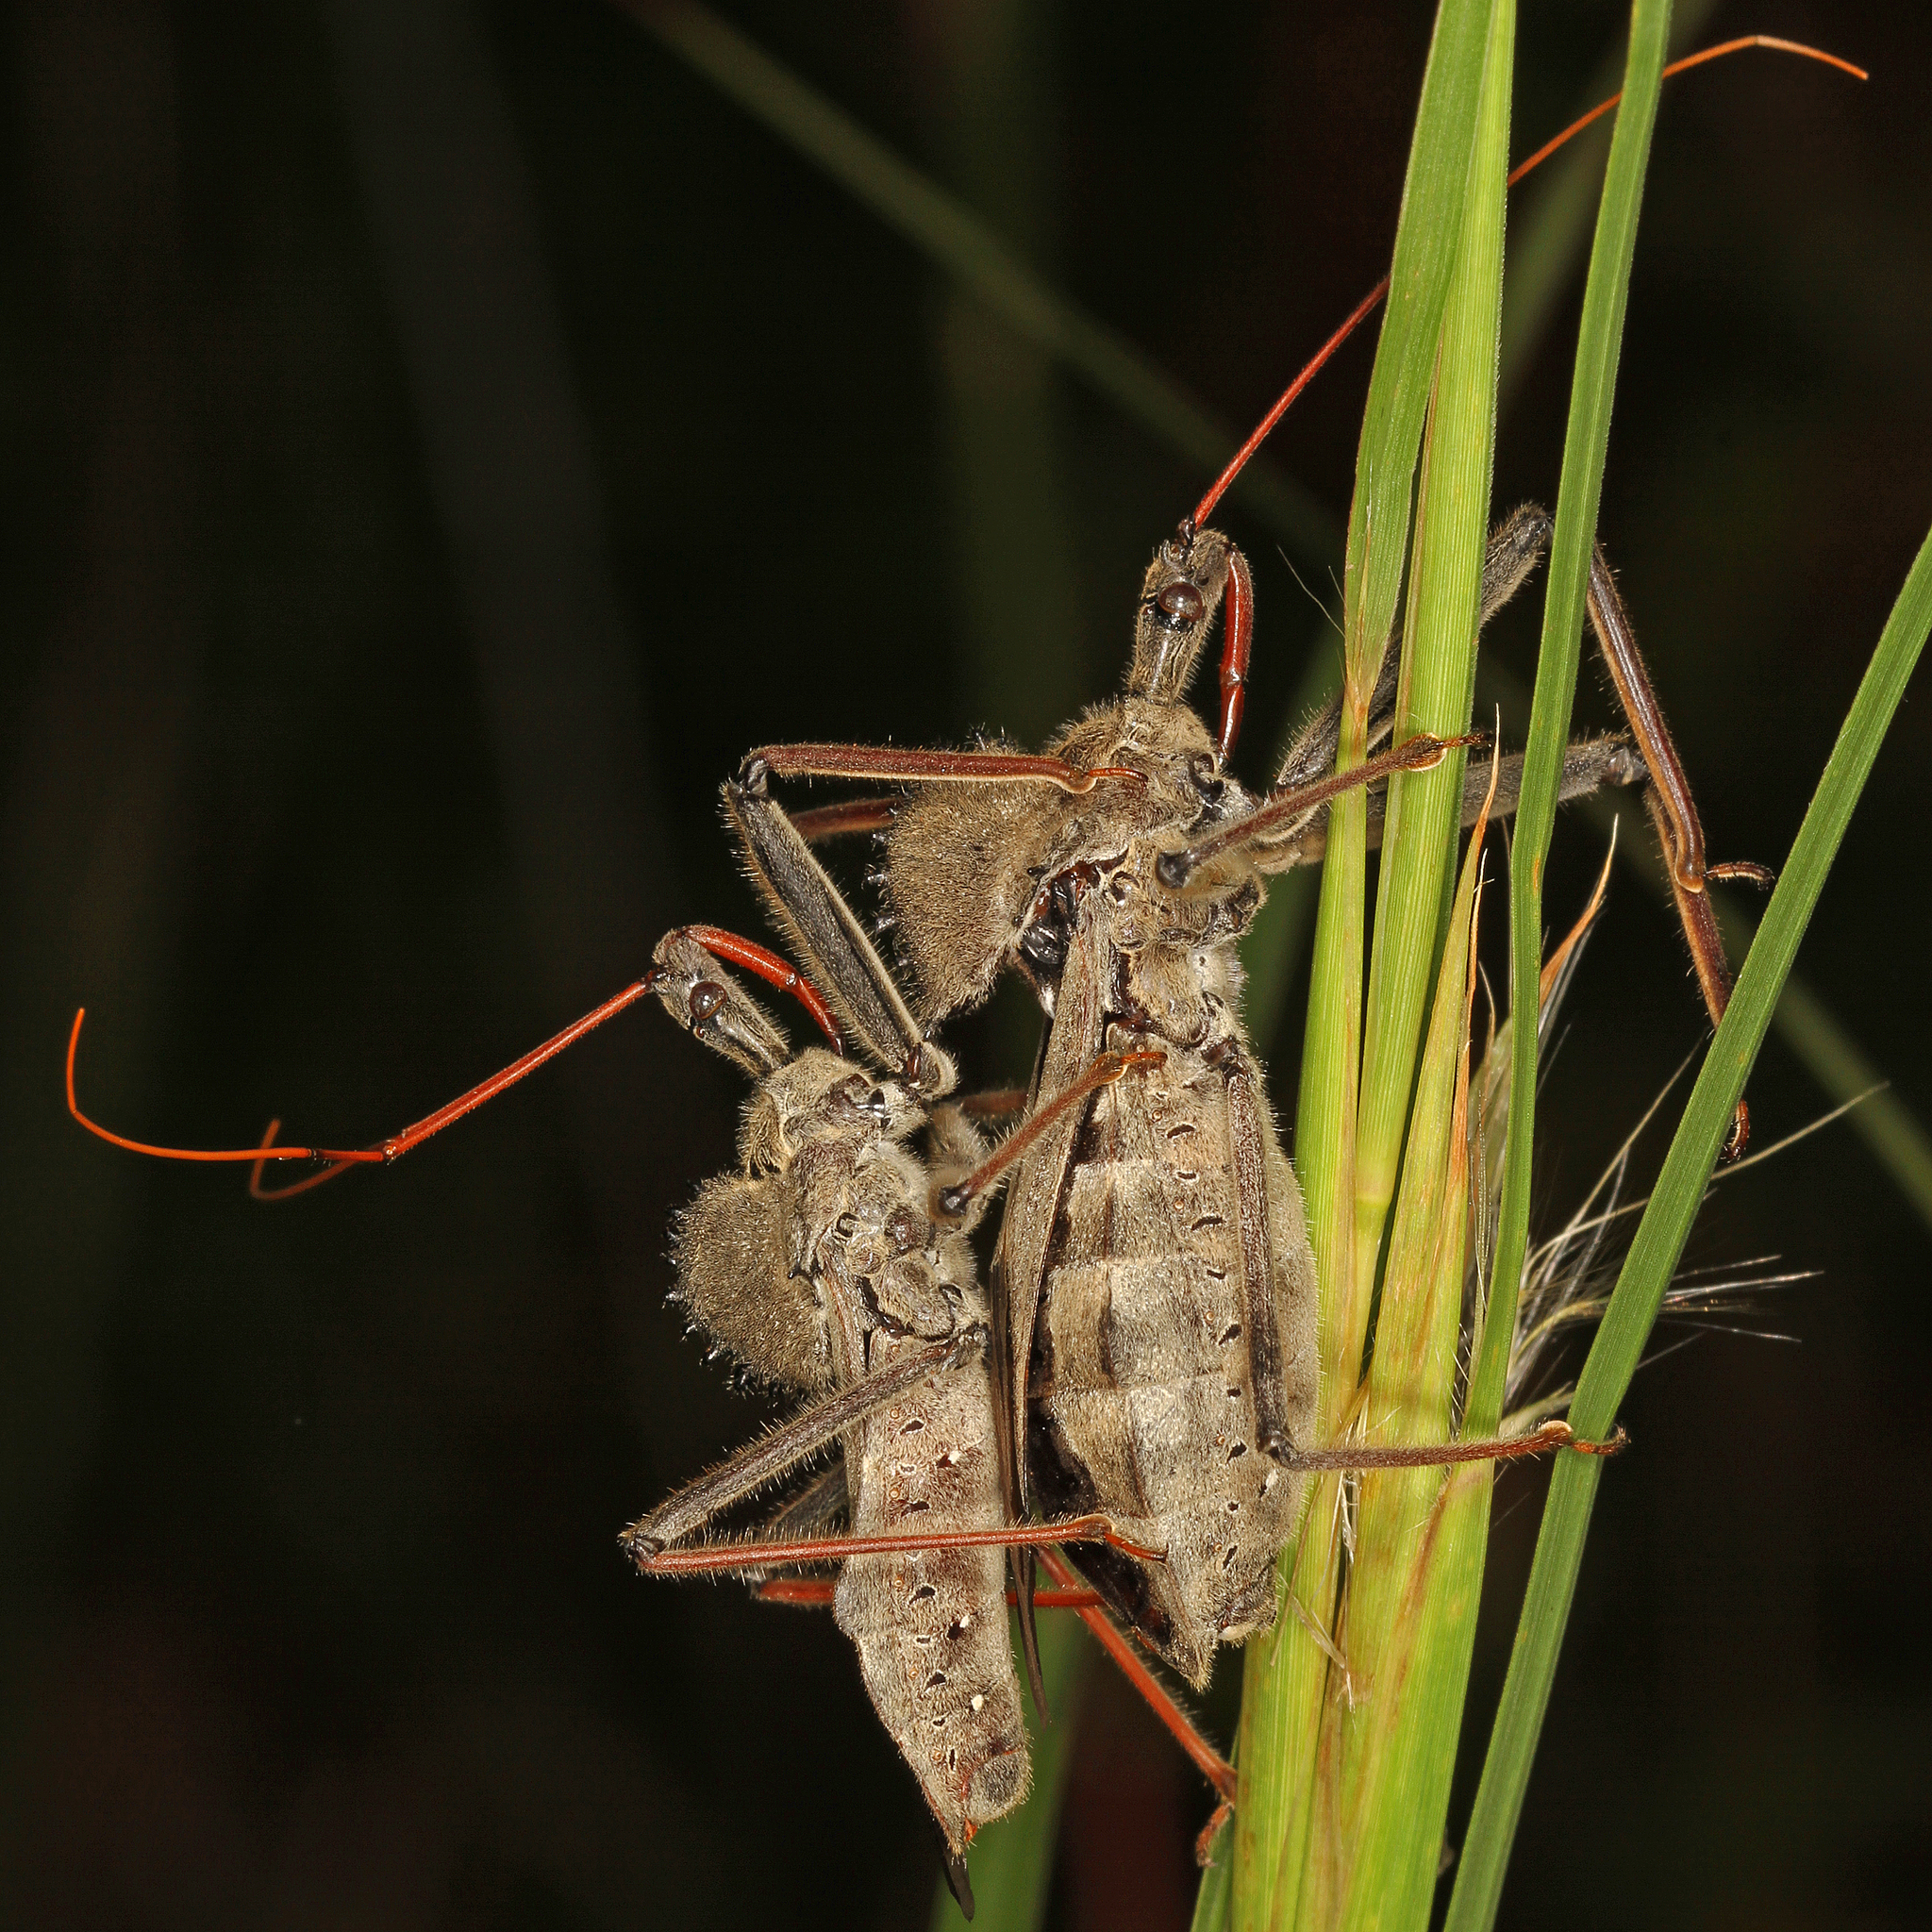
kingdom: Animalia
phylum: Arthropoda
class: Insecta
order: Hemiptera
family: Reduviidae
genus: Arilus
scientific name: Arilus cristatus
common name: North american wheel bug
